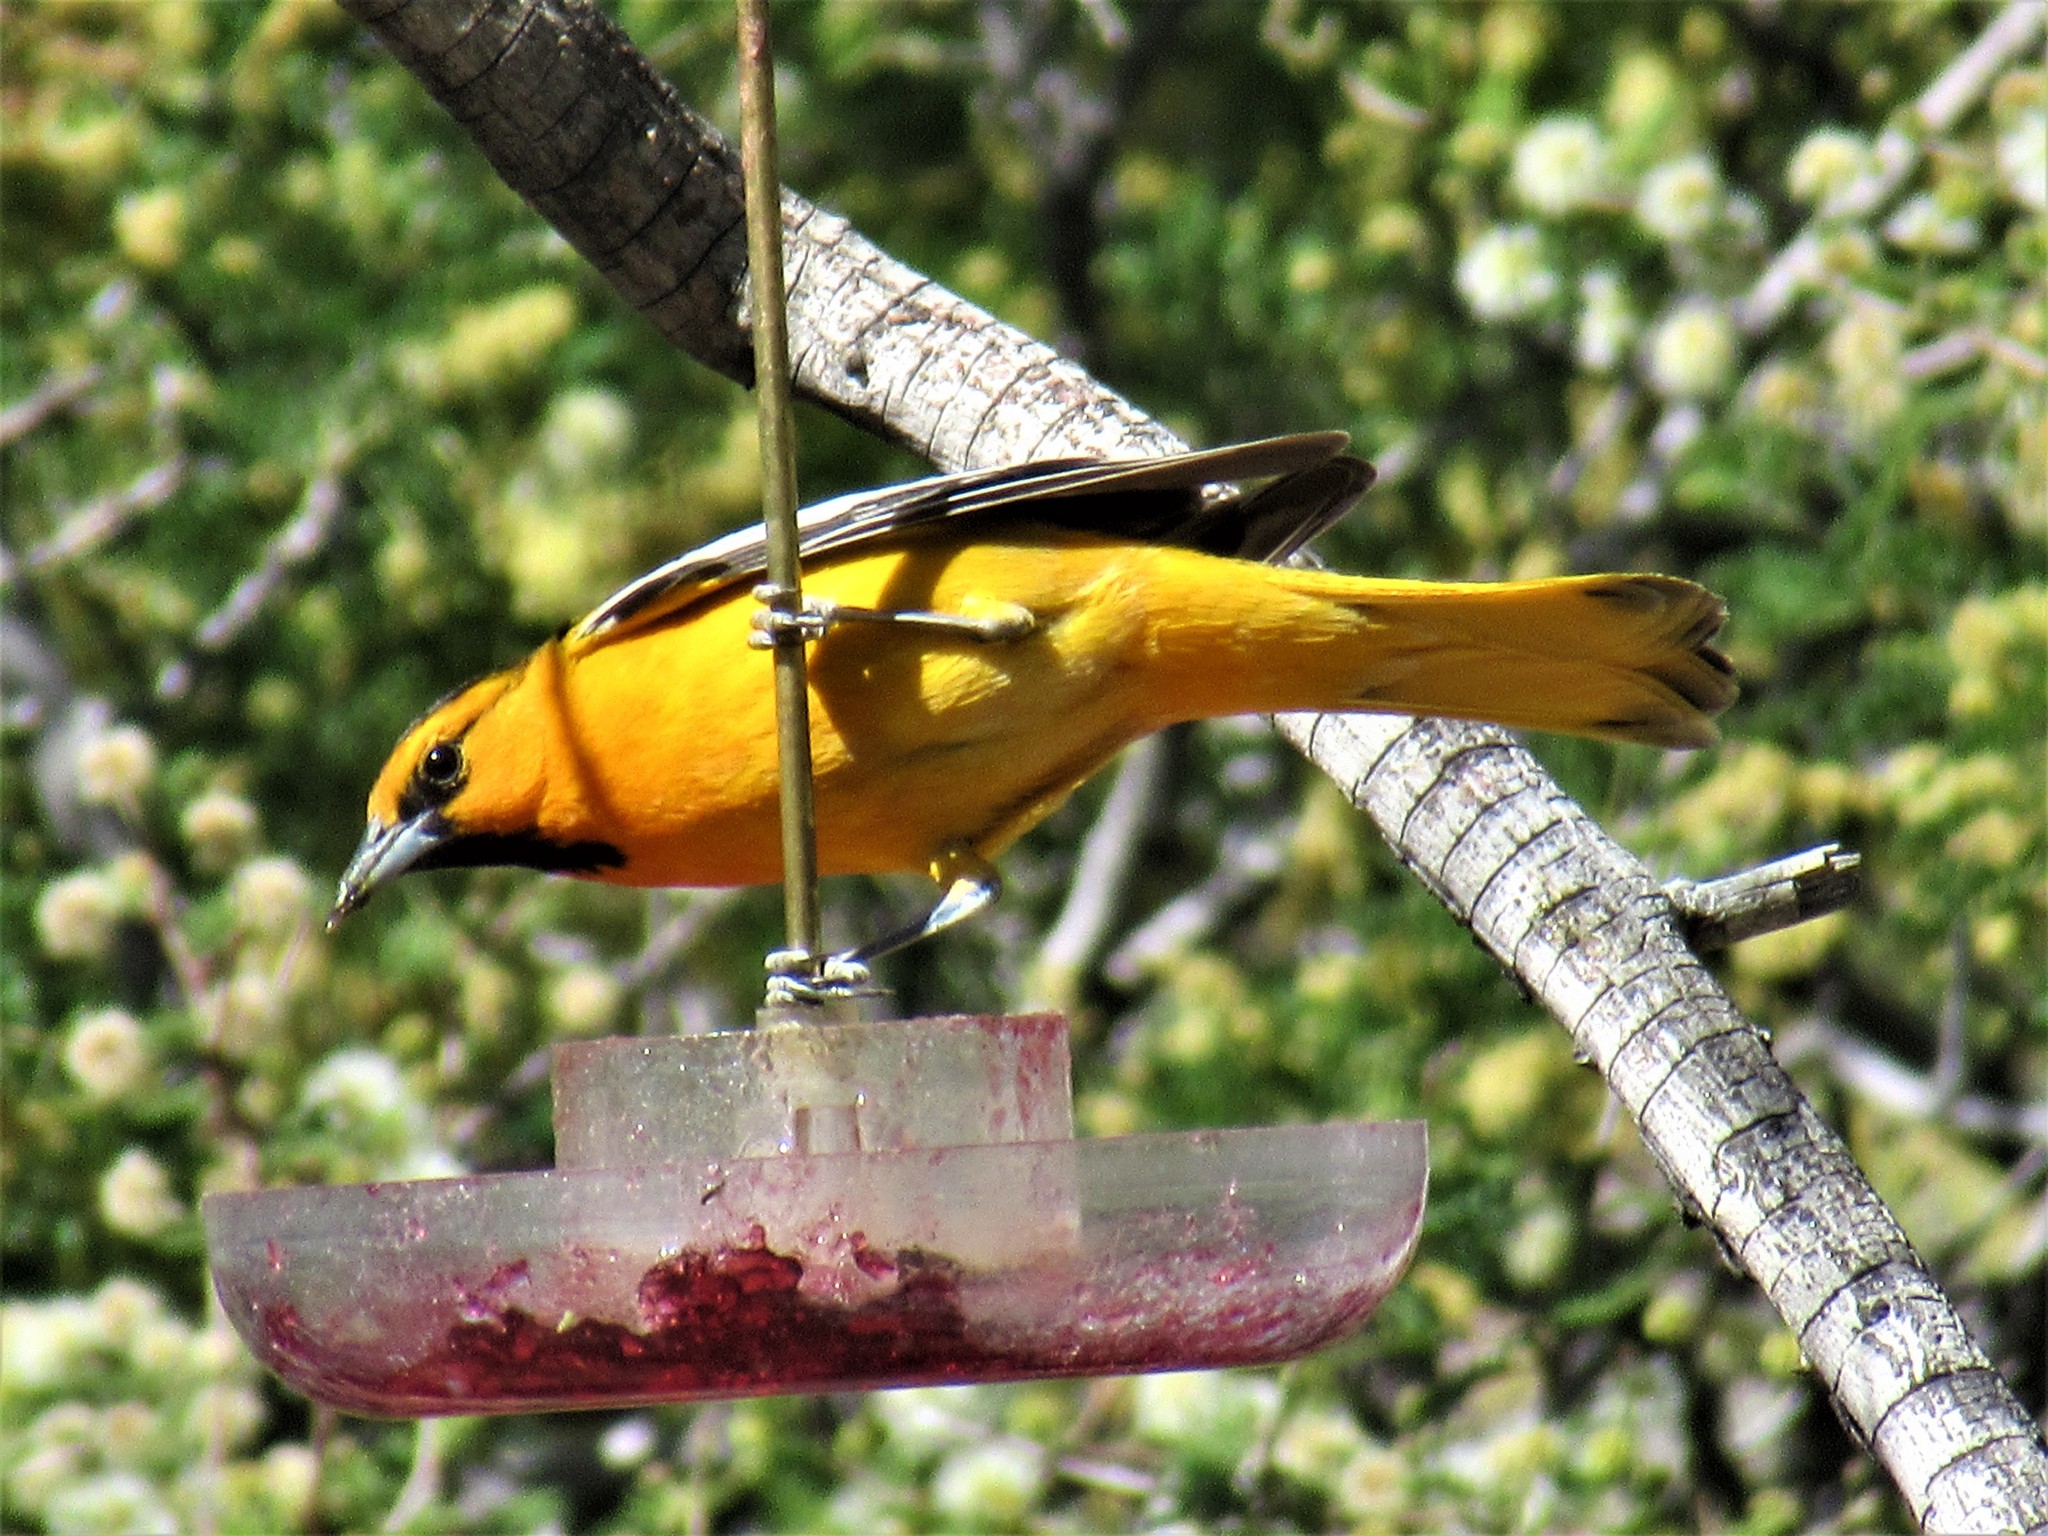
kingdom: Animalia
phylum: Chordata
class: Aves
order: Passeriformes
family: Icteridae
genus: Icterus
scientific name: Icterus bullockii
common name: Bullock's oriole
